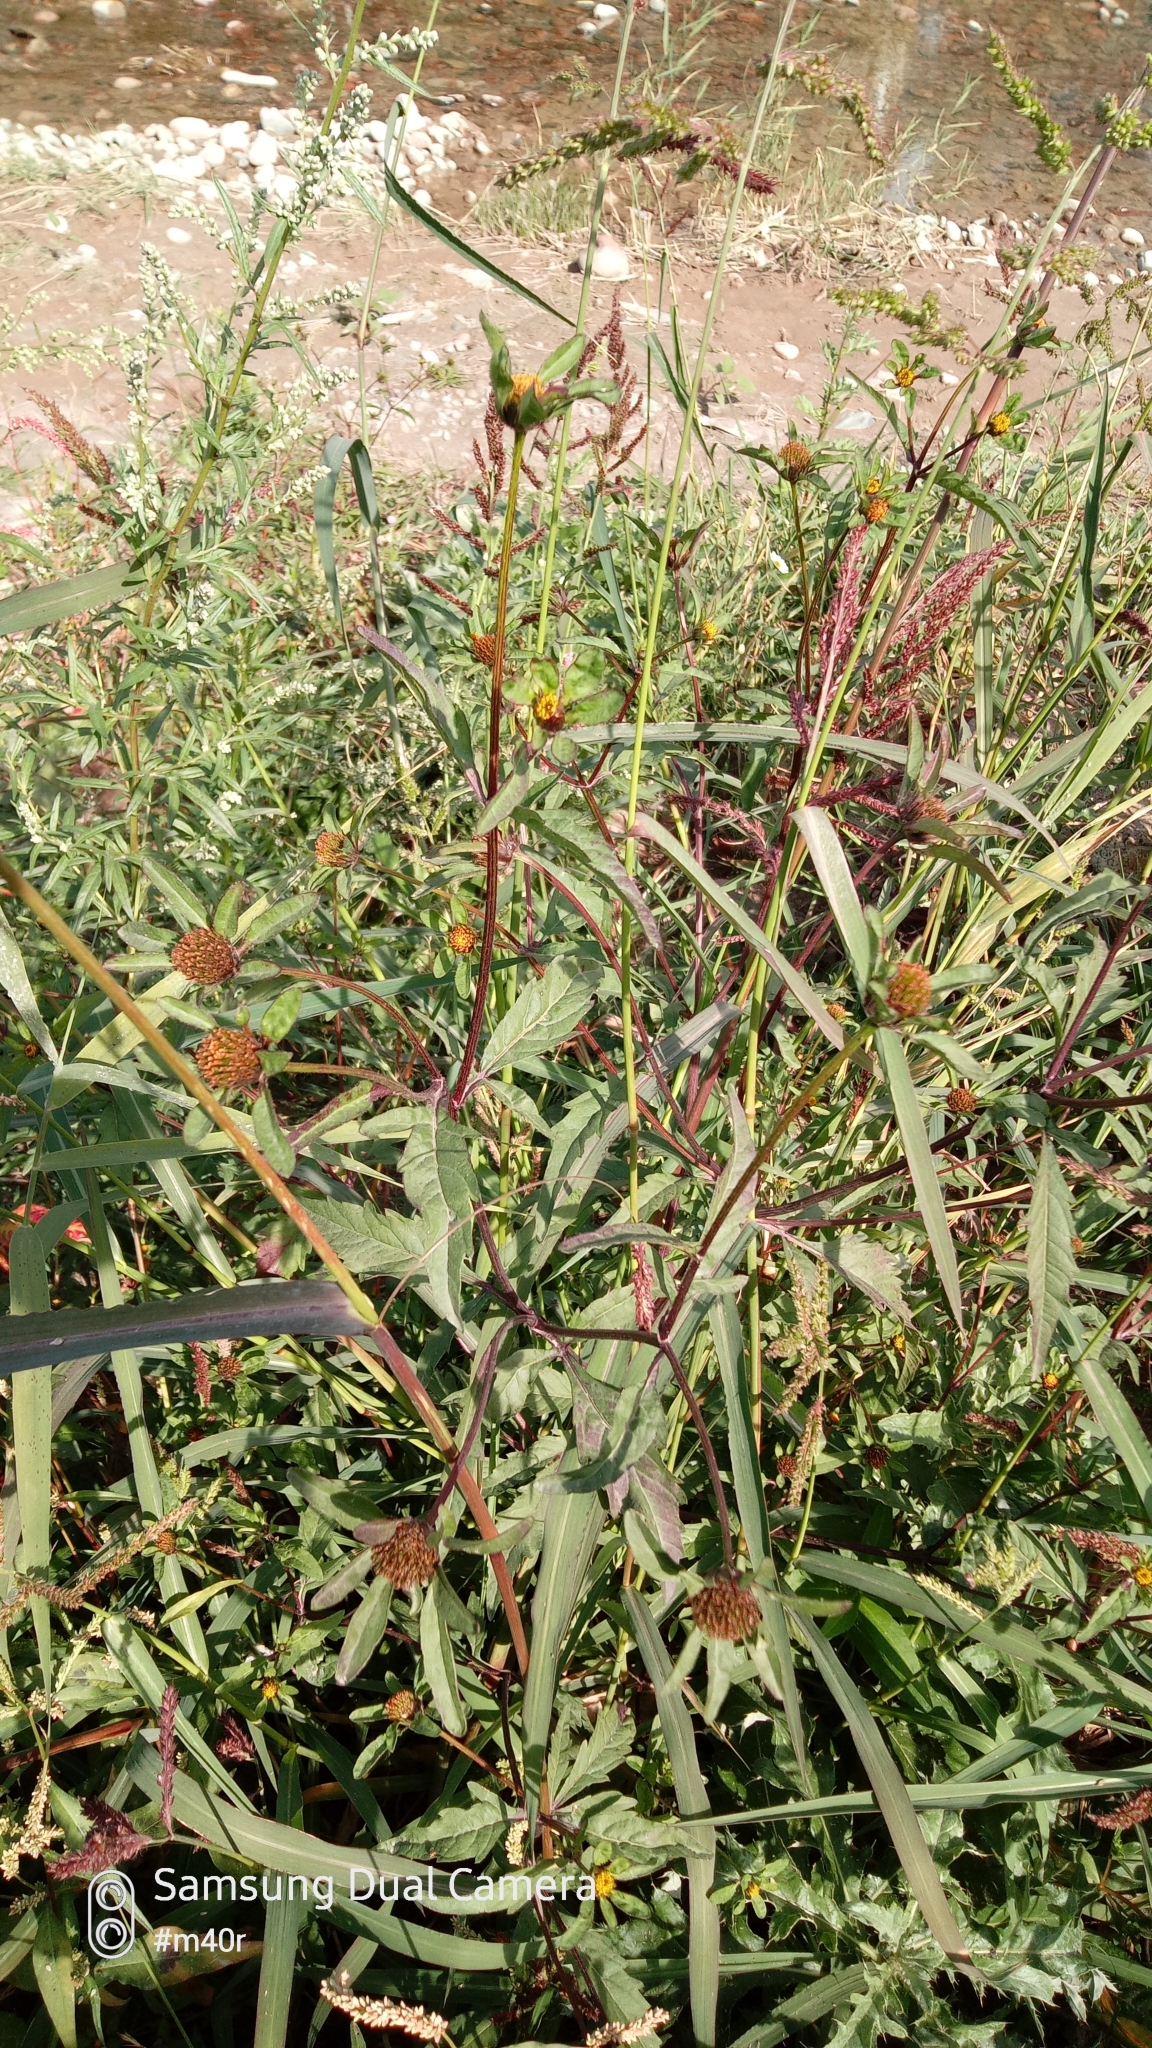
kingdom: Plantae
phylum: Tracheophyta
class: Magnoliopsida
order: Asterales
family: Asteraceae
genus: Bidens
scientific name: Bidens tripartita
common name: Trifid bur-marigold
